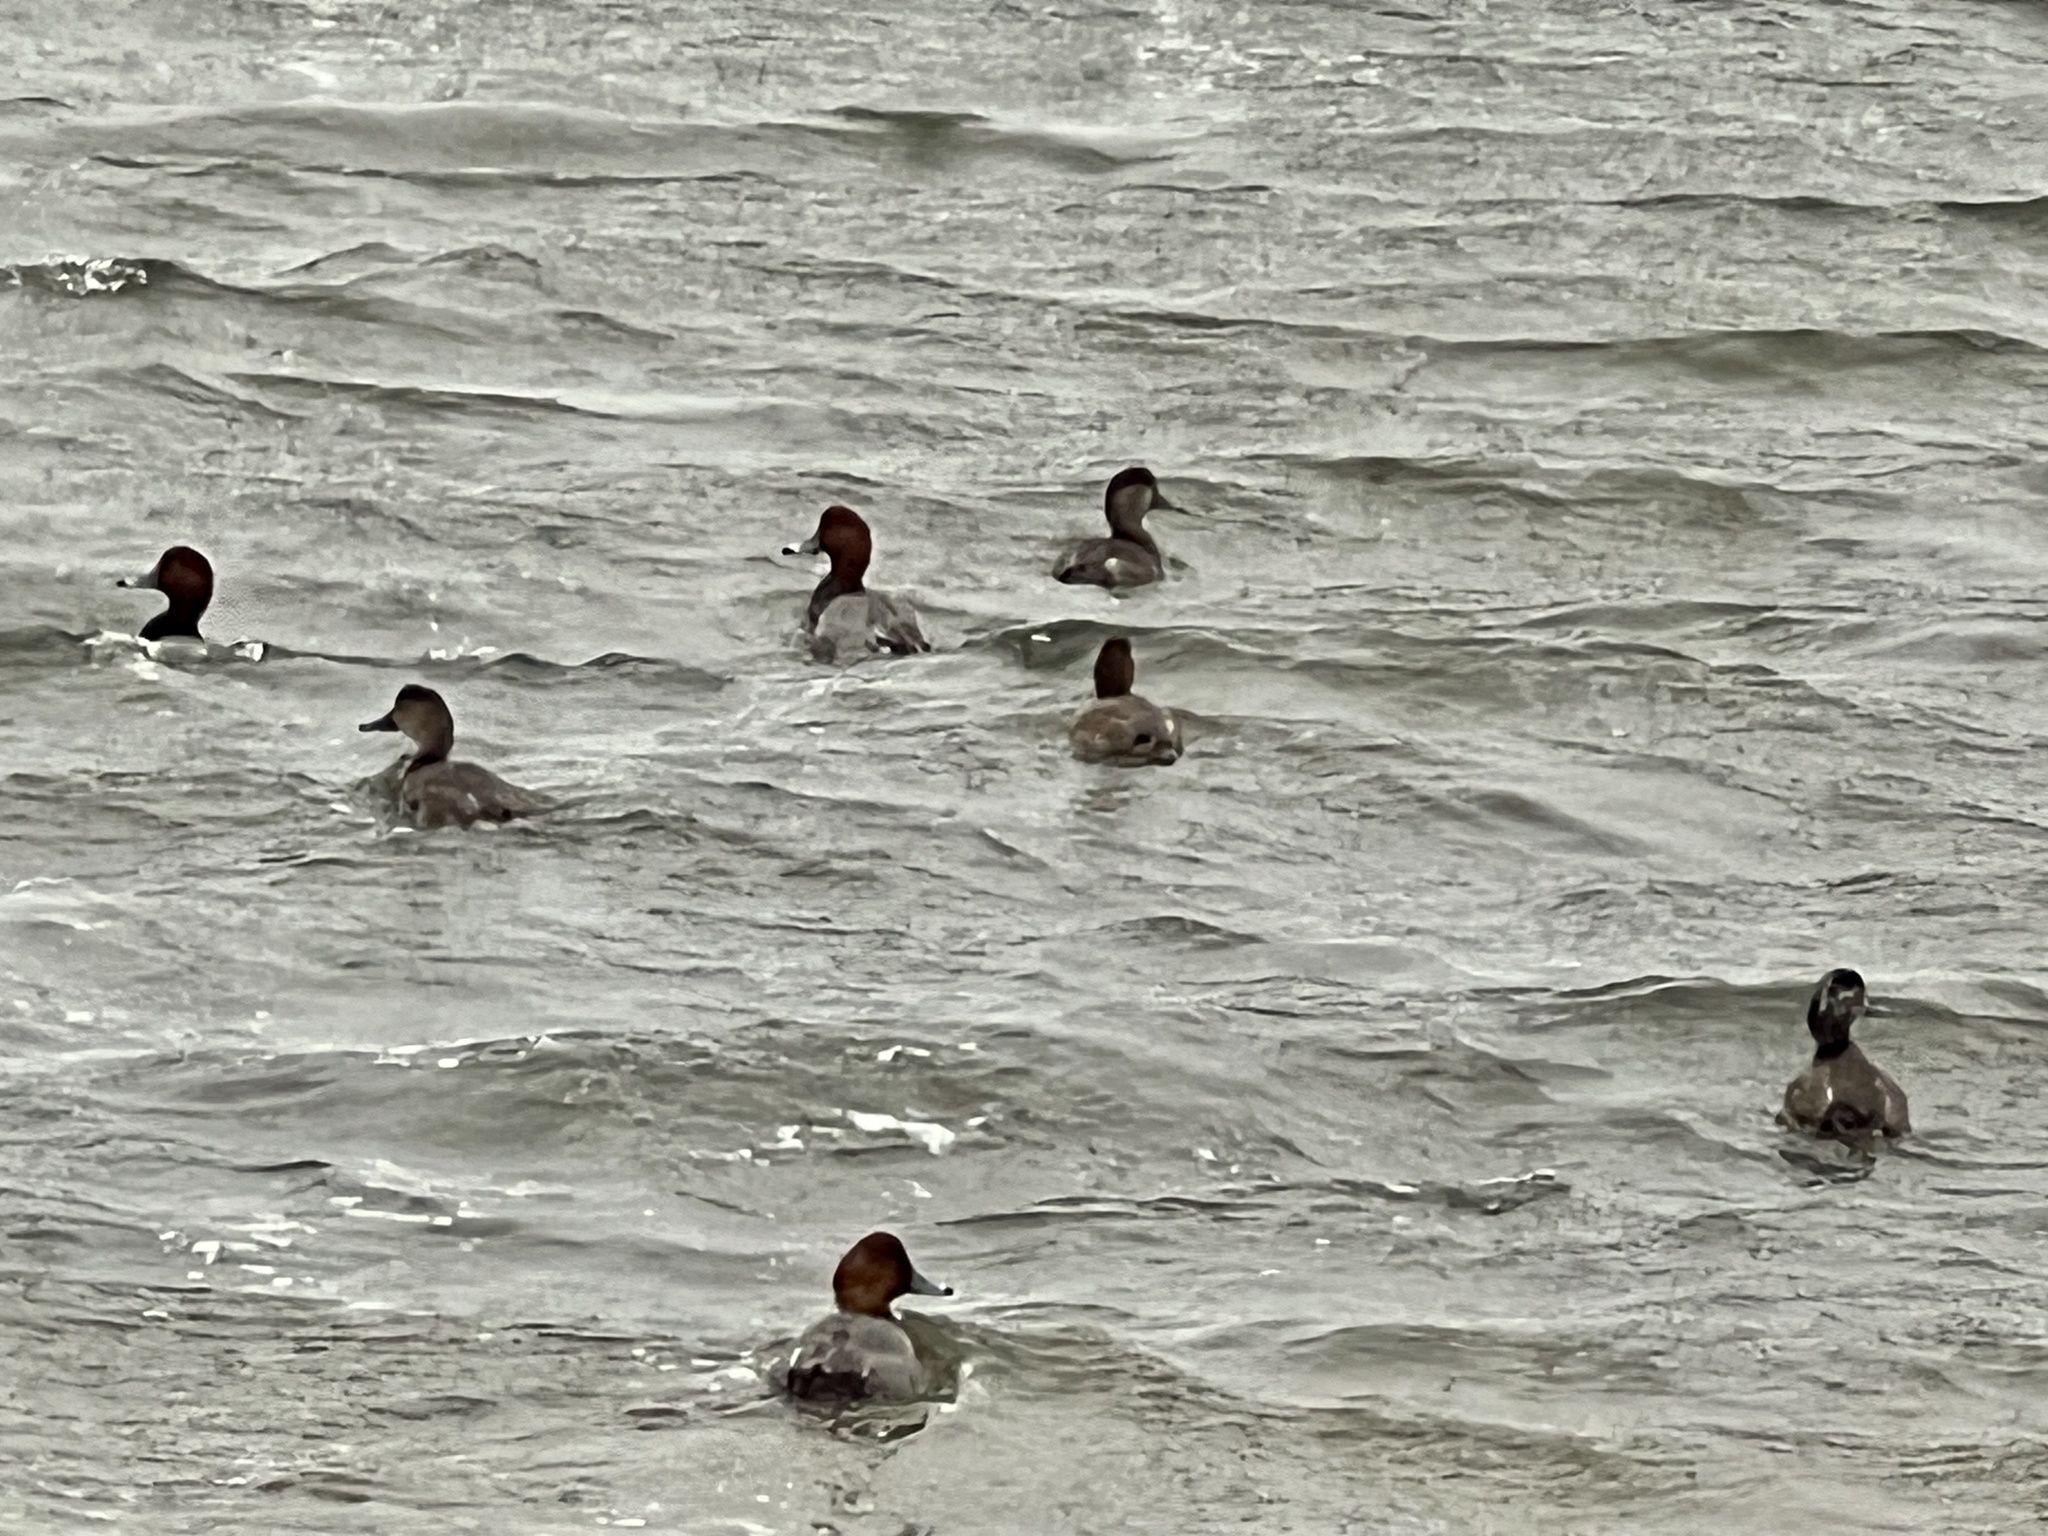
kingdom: Animalia
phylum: Chordata
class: Aves
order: Anseriformes
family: Anatidae
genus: Aythya
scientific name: Aythya americana
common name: Redhead
